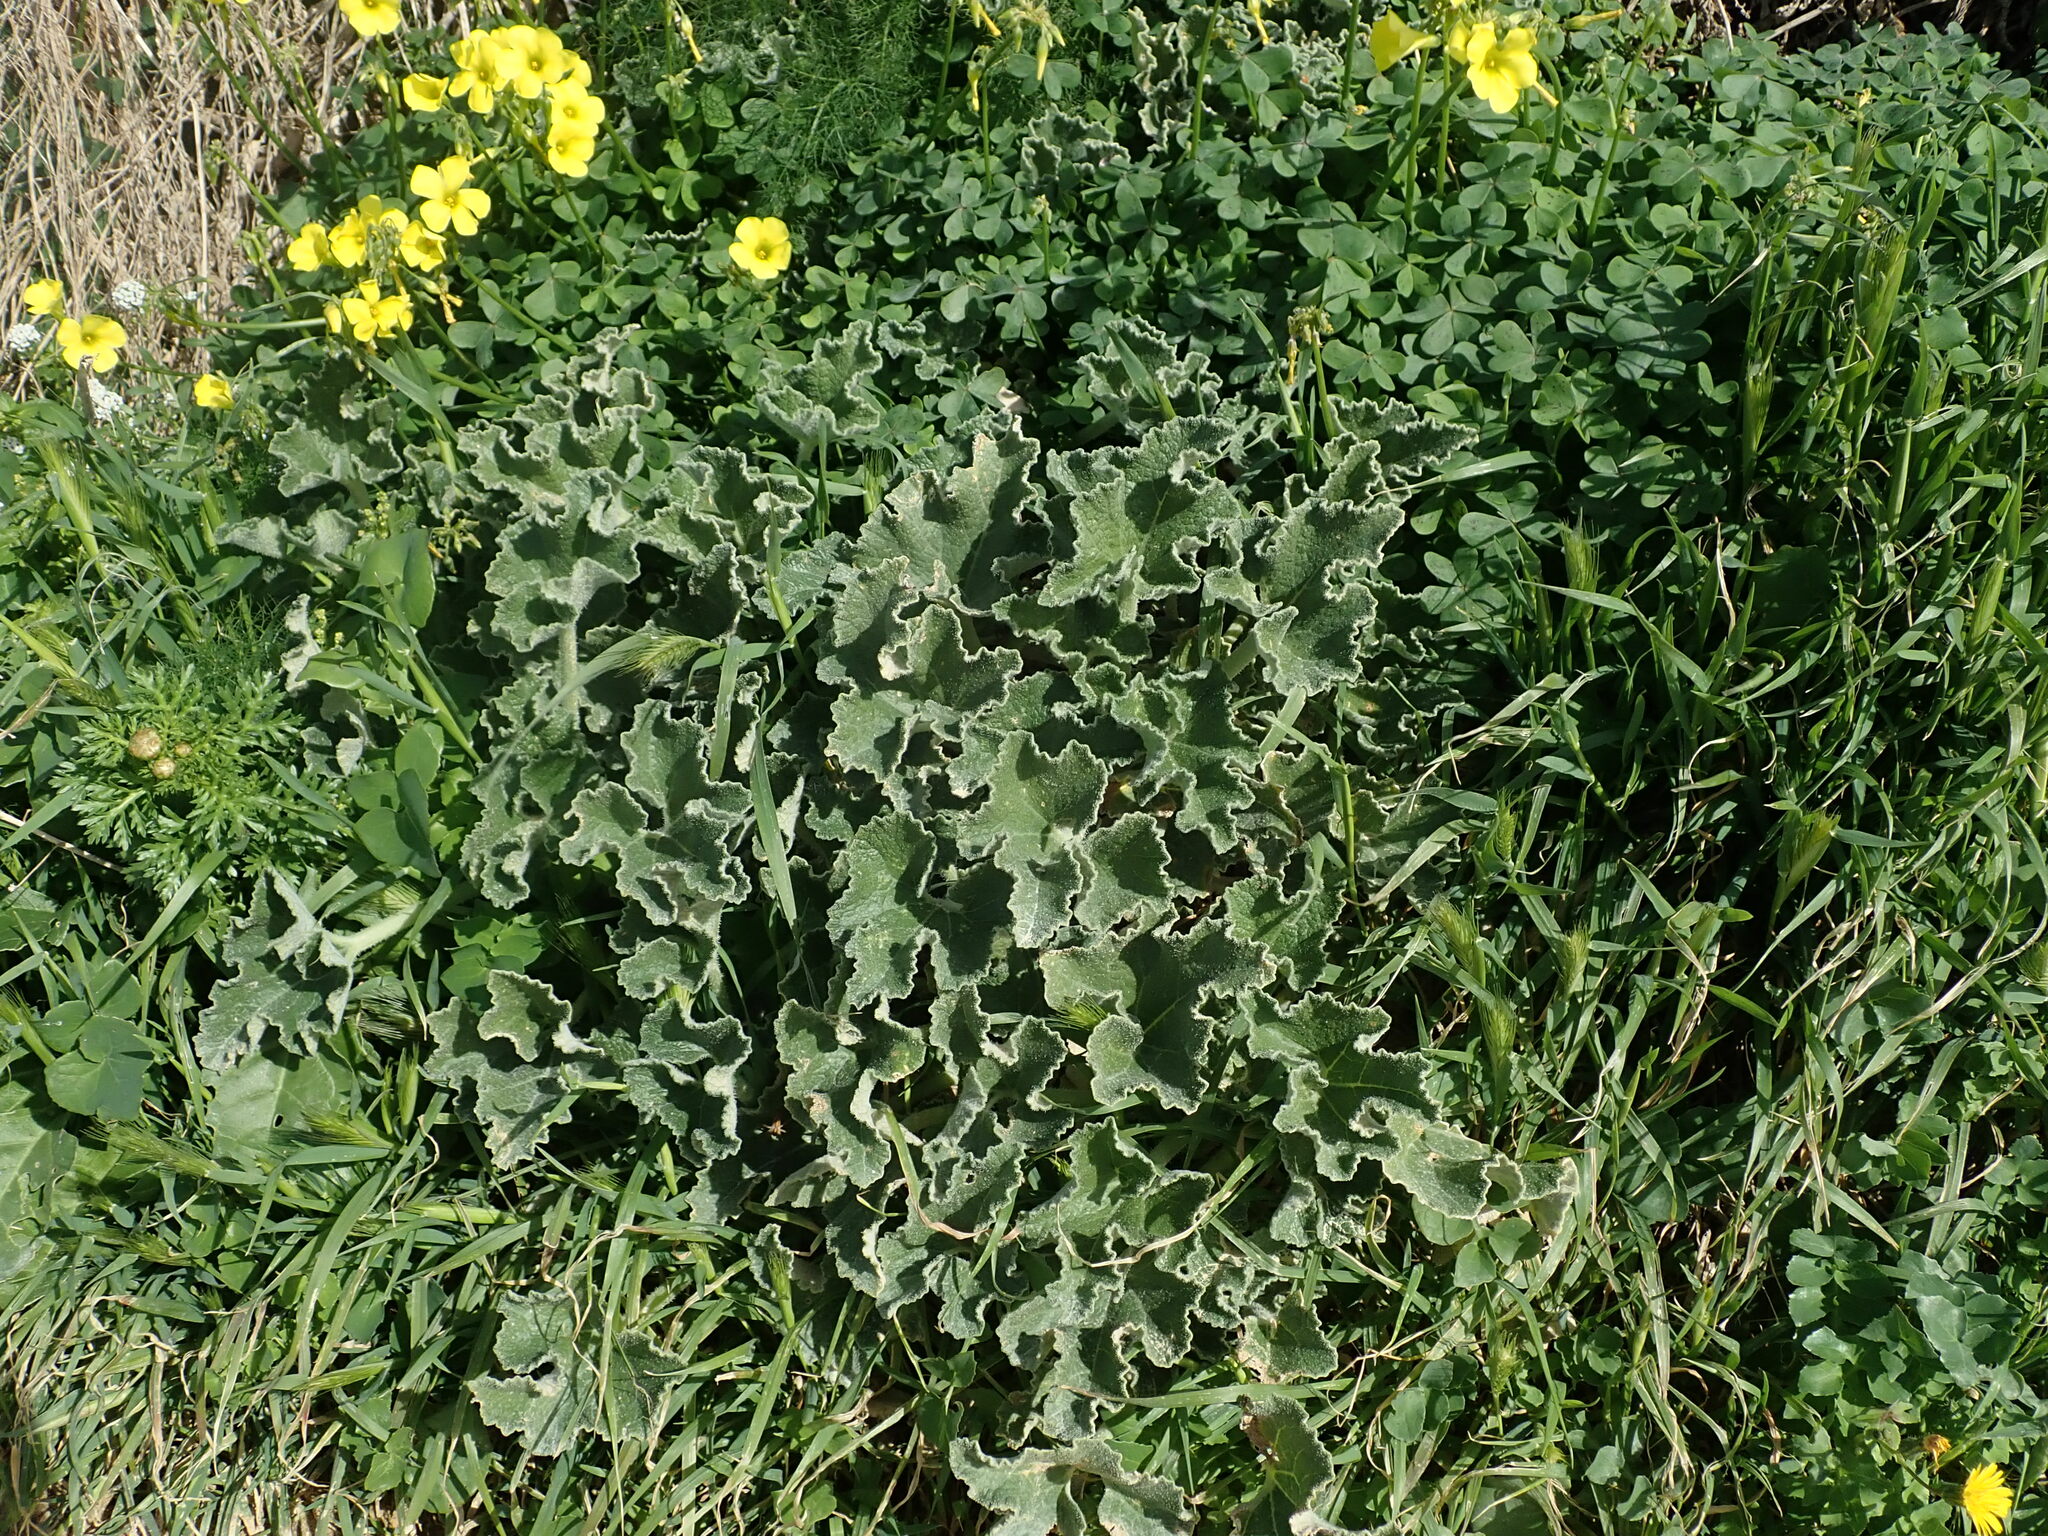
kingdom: Plantae
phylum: Tracheophyta
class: Magnoliopsida
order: Cucurbitales
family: Cucurbitaceae
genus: Ecballium
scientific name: Ecballium elaterium
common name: Squirting cucumber
